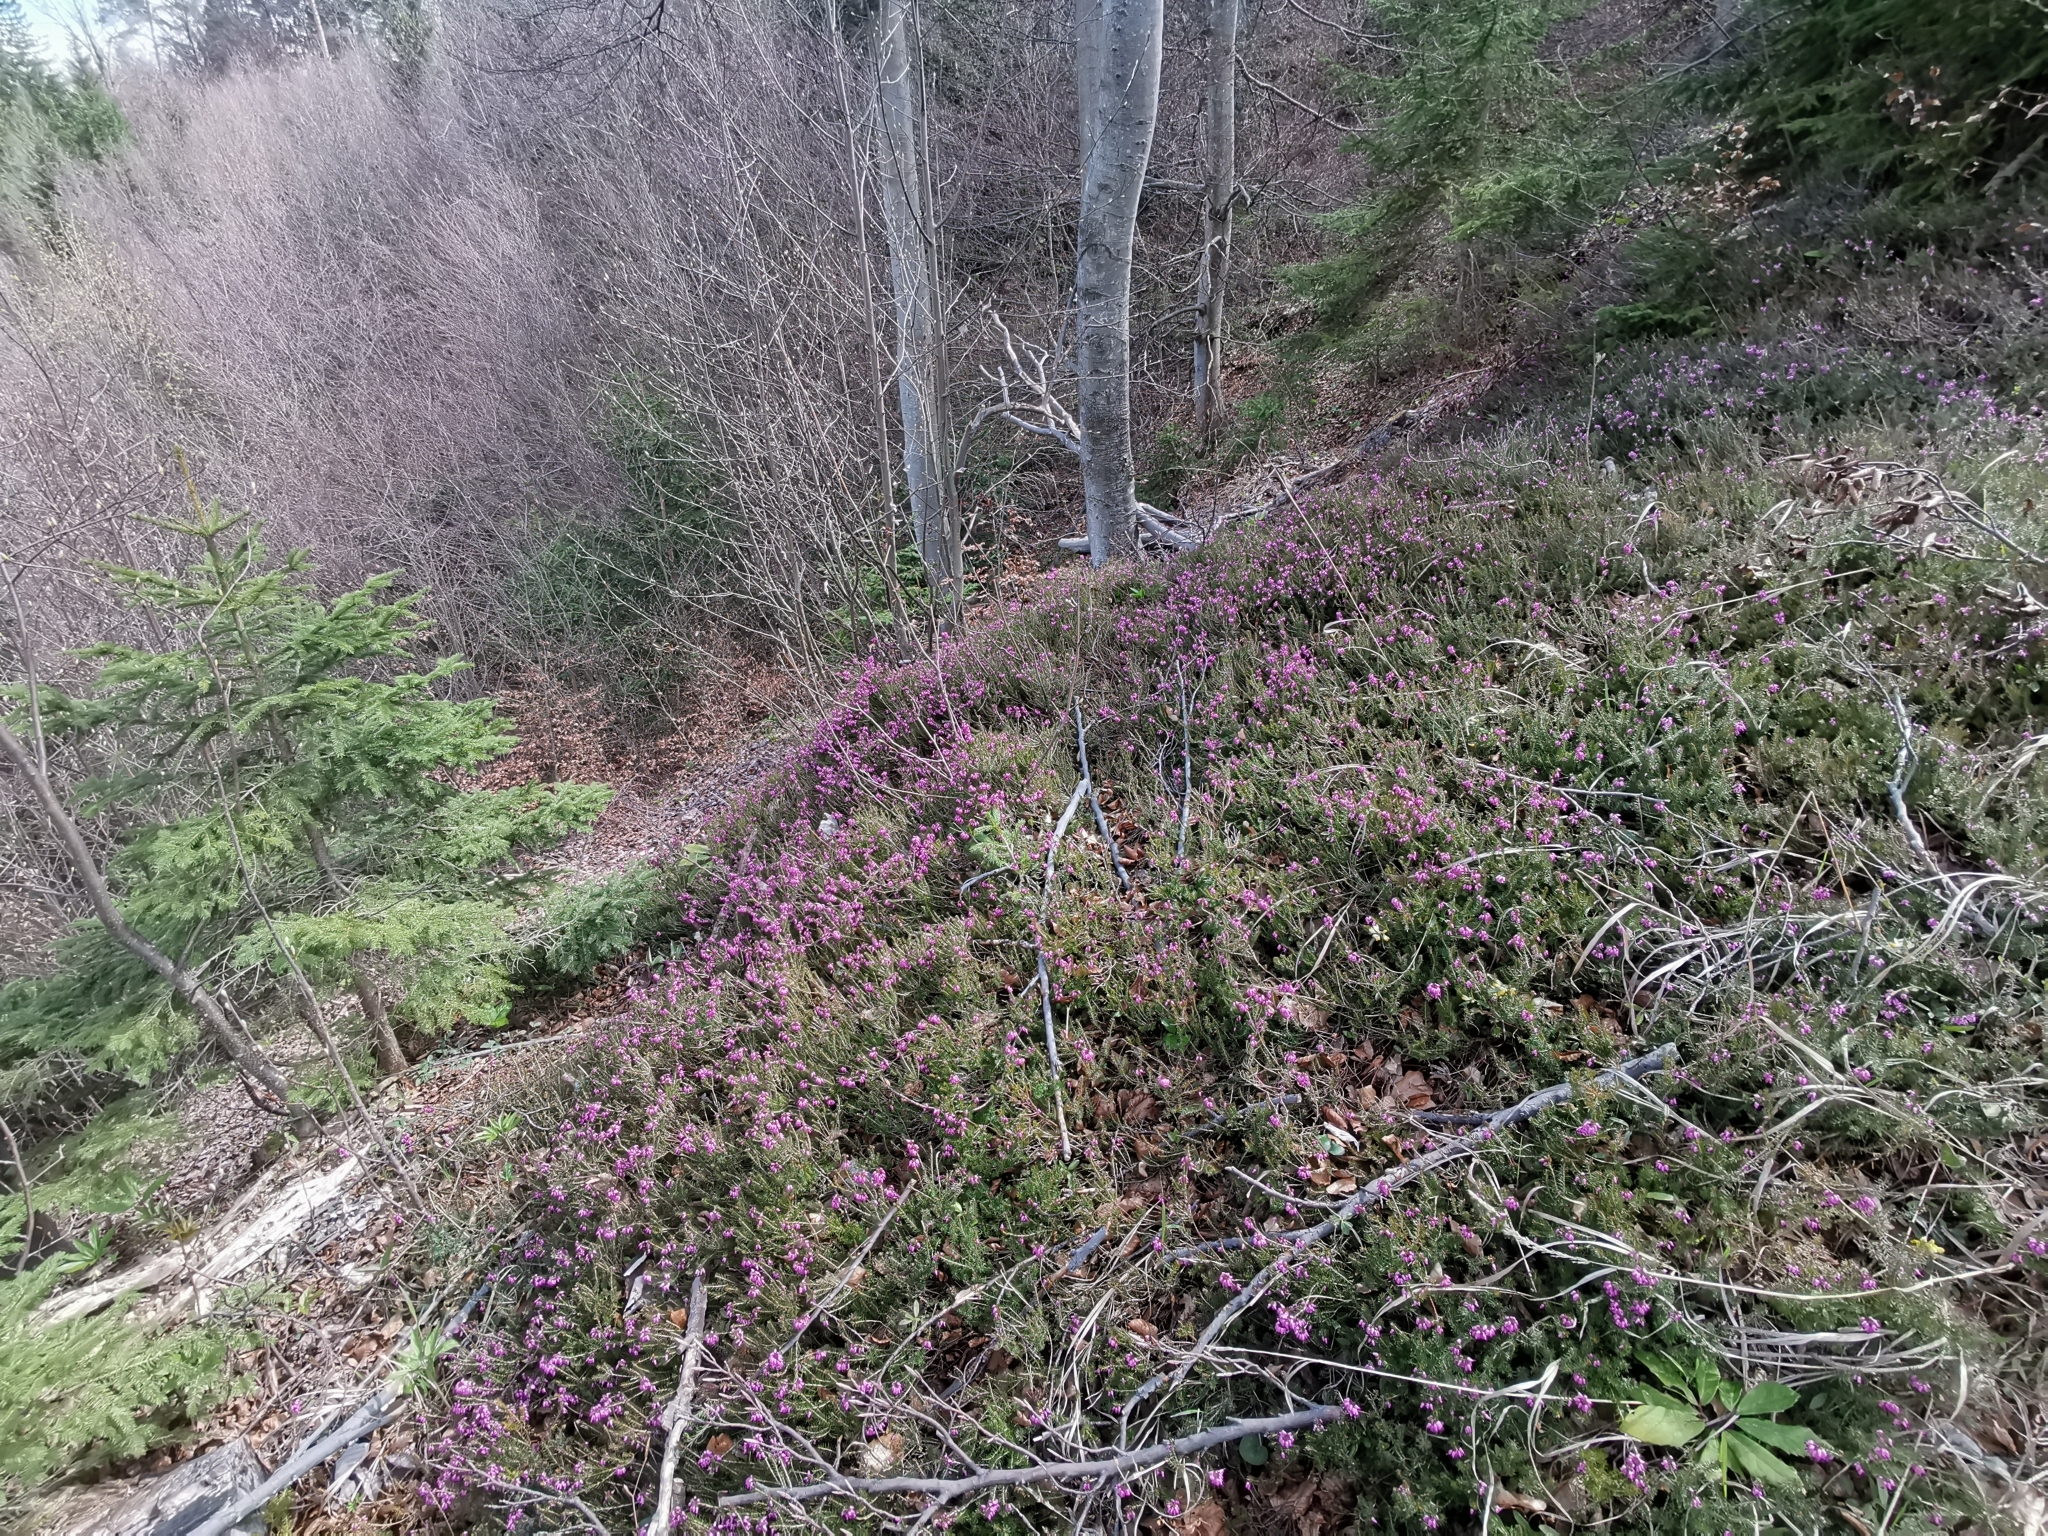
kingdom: Plantae
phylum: Tracheophyta
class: Magnoliopsida
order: Ericales
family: Ericaceae
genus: Erica
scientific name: Erica carnea
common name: Winter heath
